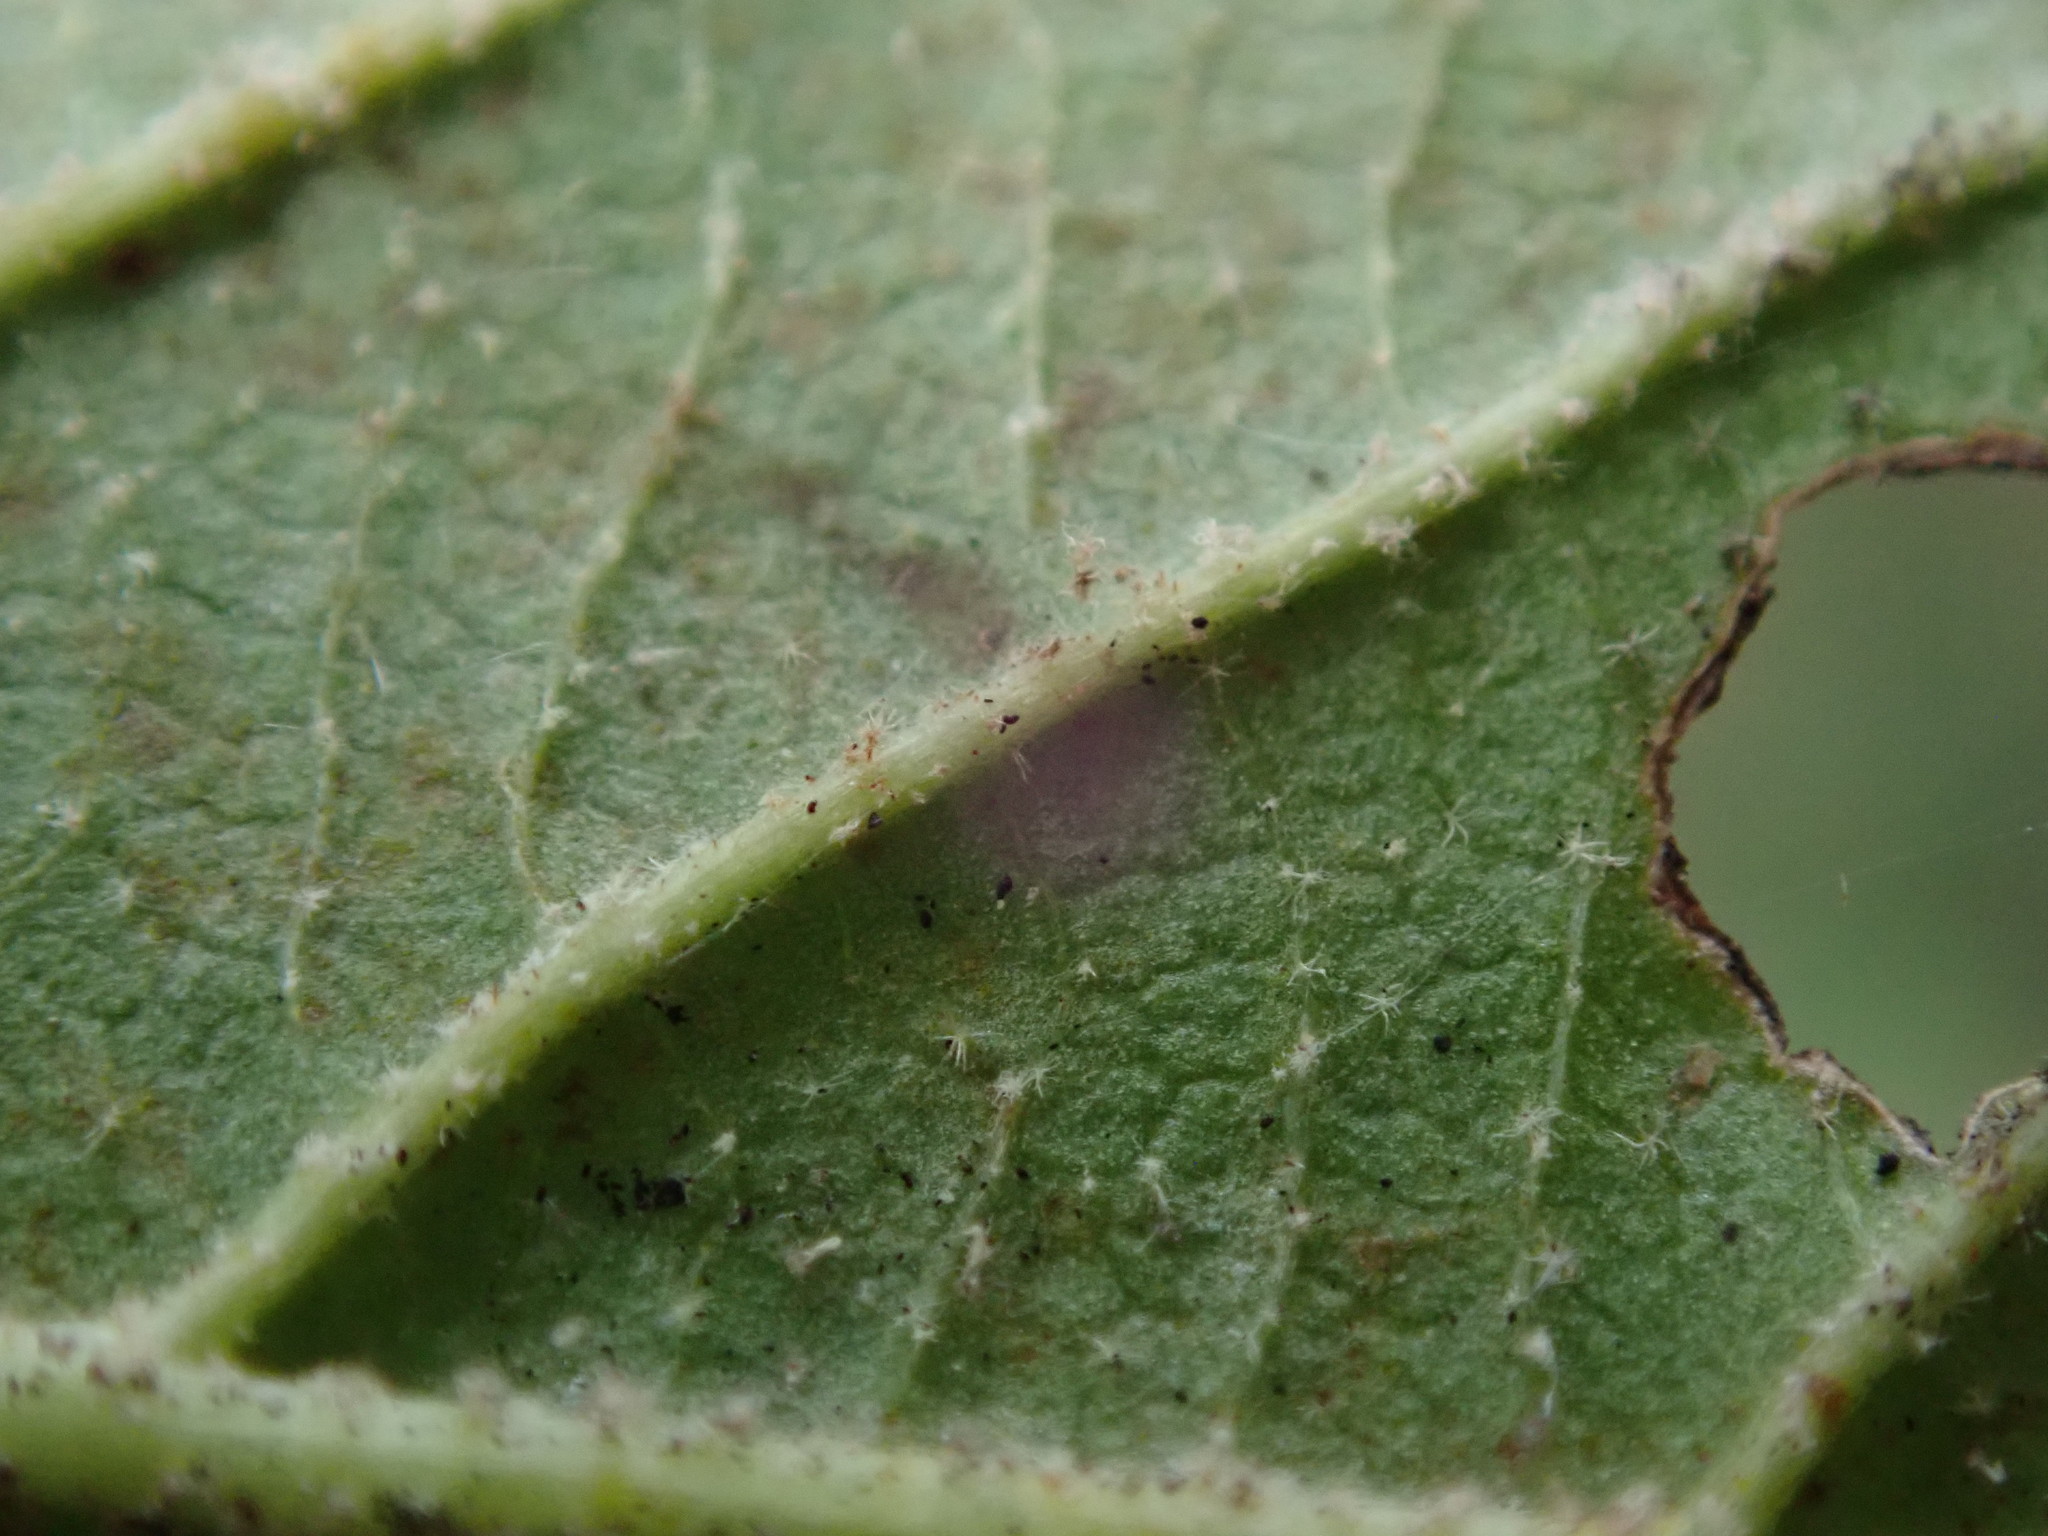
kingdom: Plantae
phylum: Tracheophyta
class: Magnoliopsida
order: Dipsacales
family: Viburnaceae
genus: Viburnum
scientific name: Viburnum lantana
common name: Wayfaring tree
